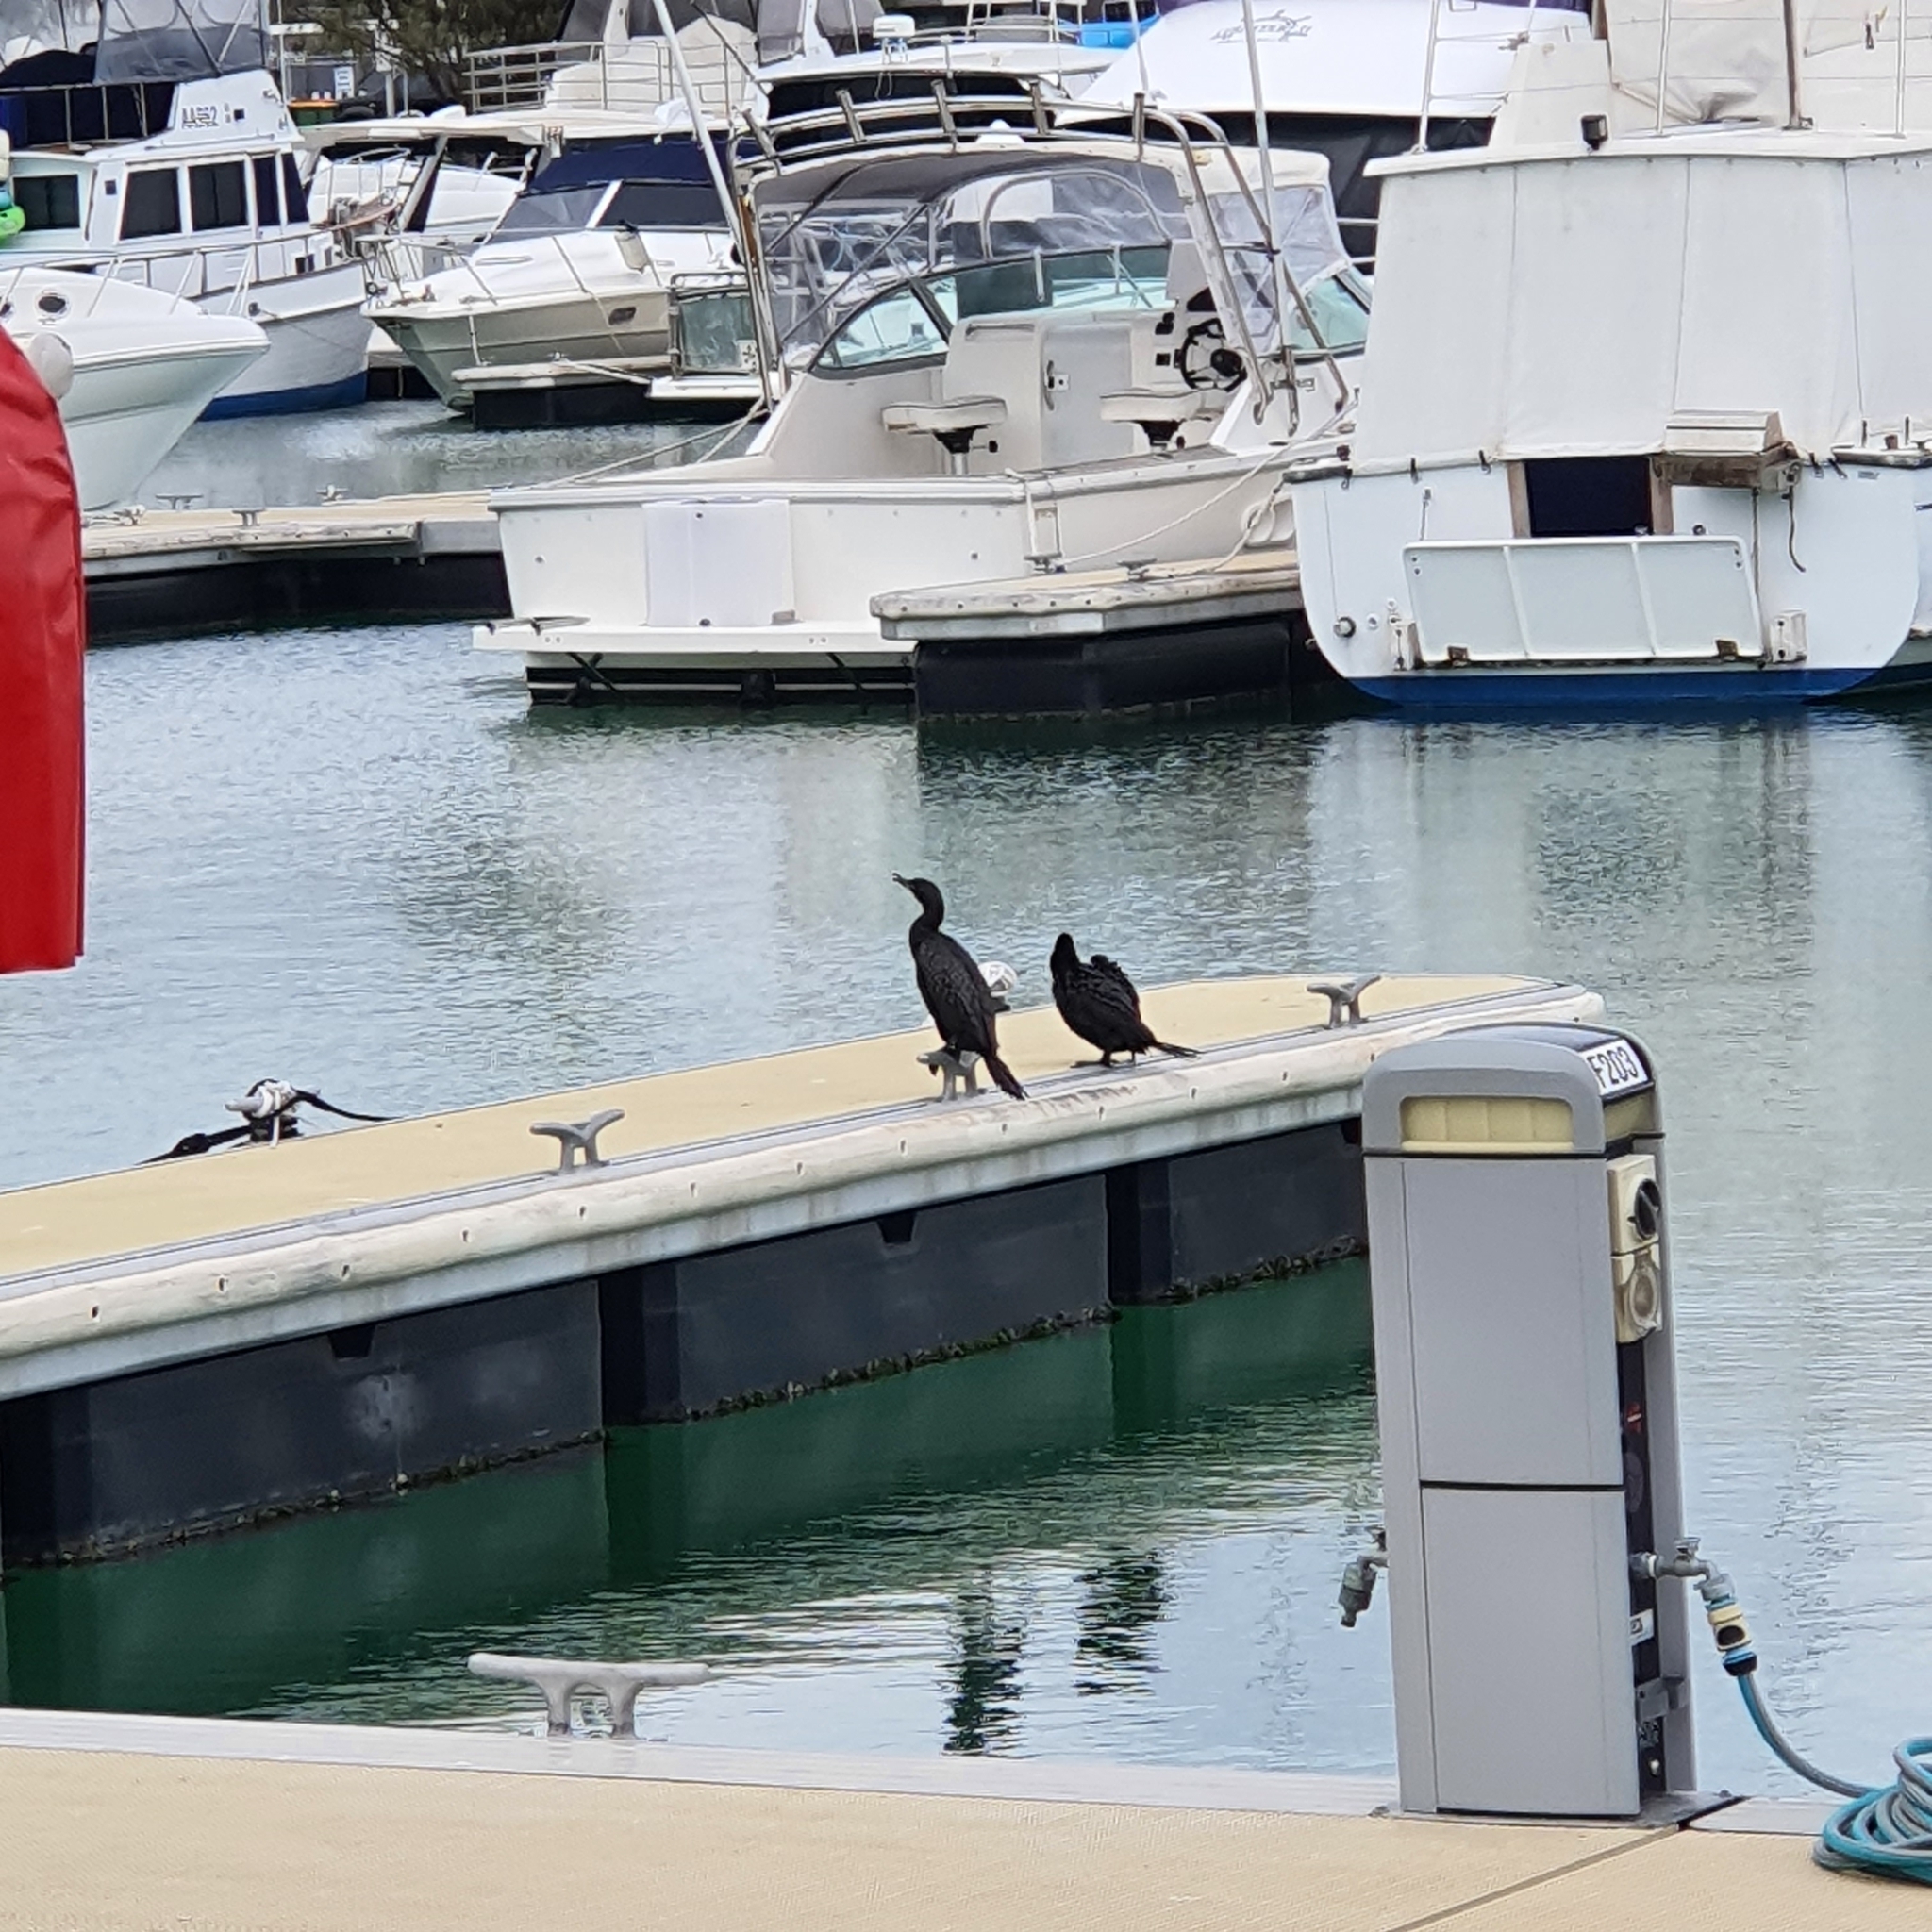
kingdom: Animalia
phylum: Chordata
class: Aves
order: Suliformes
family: Phalacrocoracidae
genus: Phalacrocorax
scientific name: Phalacrocorax sulcirostris
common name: Little black cormorant
